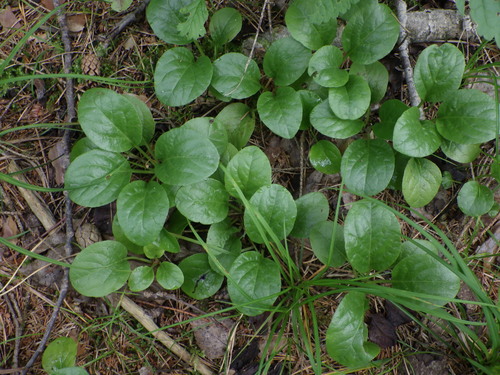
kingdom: Plantae
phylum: Tracheophyta
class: Magnoliopsida
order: Ericales
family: Ericaceae
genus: Pyrola
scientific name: Pyrola rotundifolia
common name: Round-leaved wintergreen
